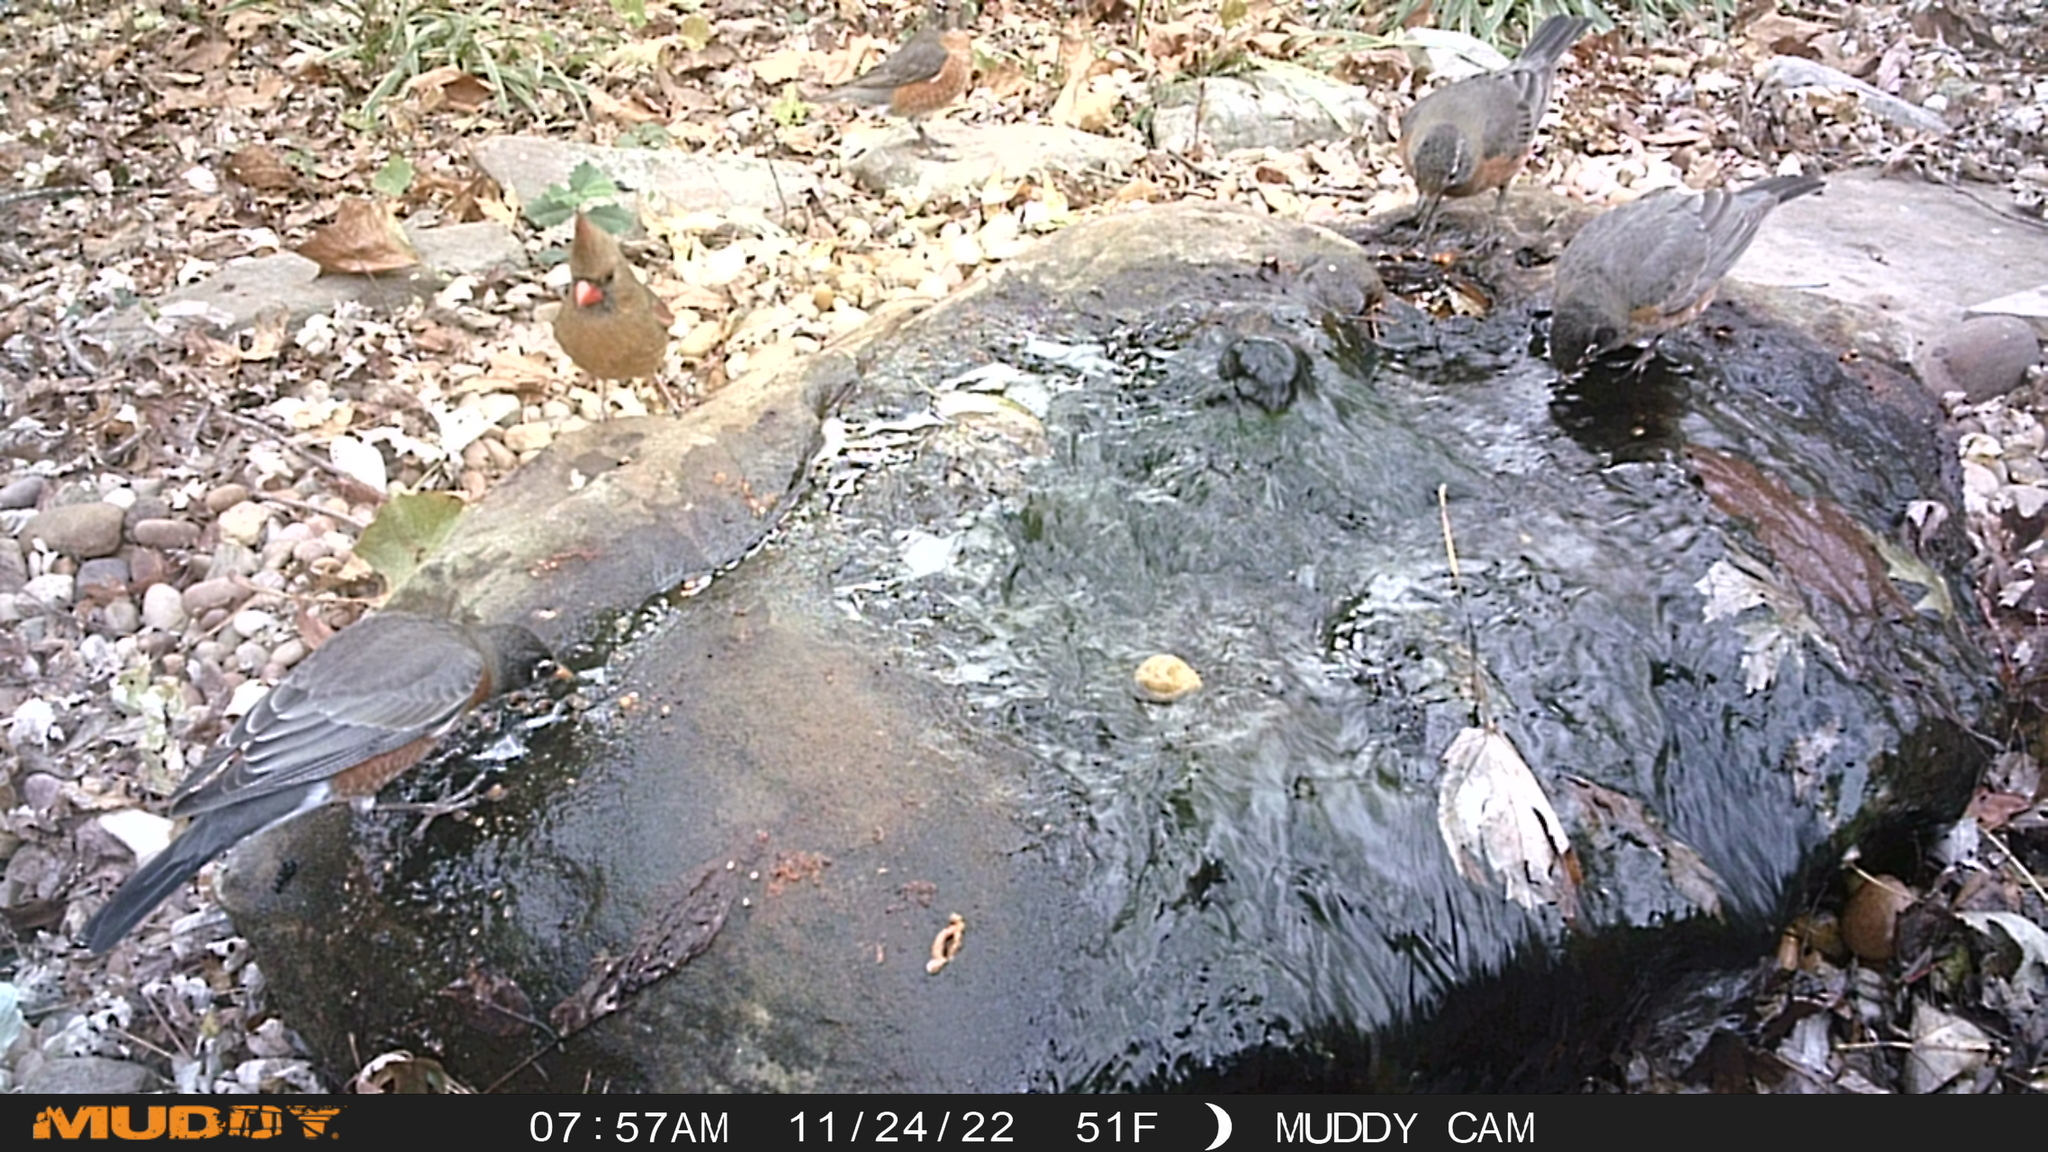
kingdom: Animalia
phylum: Chordata
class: Aves
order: Passeriformes
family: Cardinalidae
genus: Cardinalis
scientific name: Cardinalis cardinalis
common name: Northern cardinal
